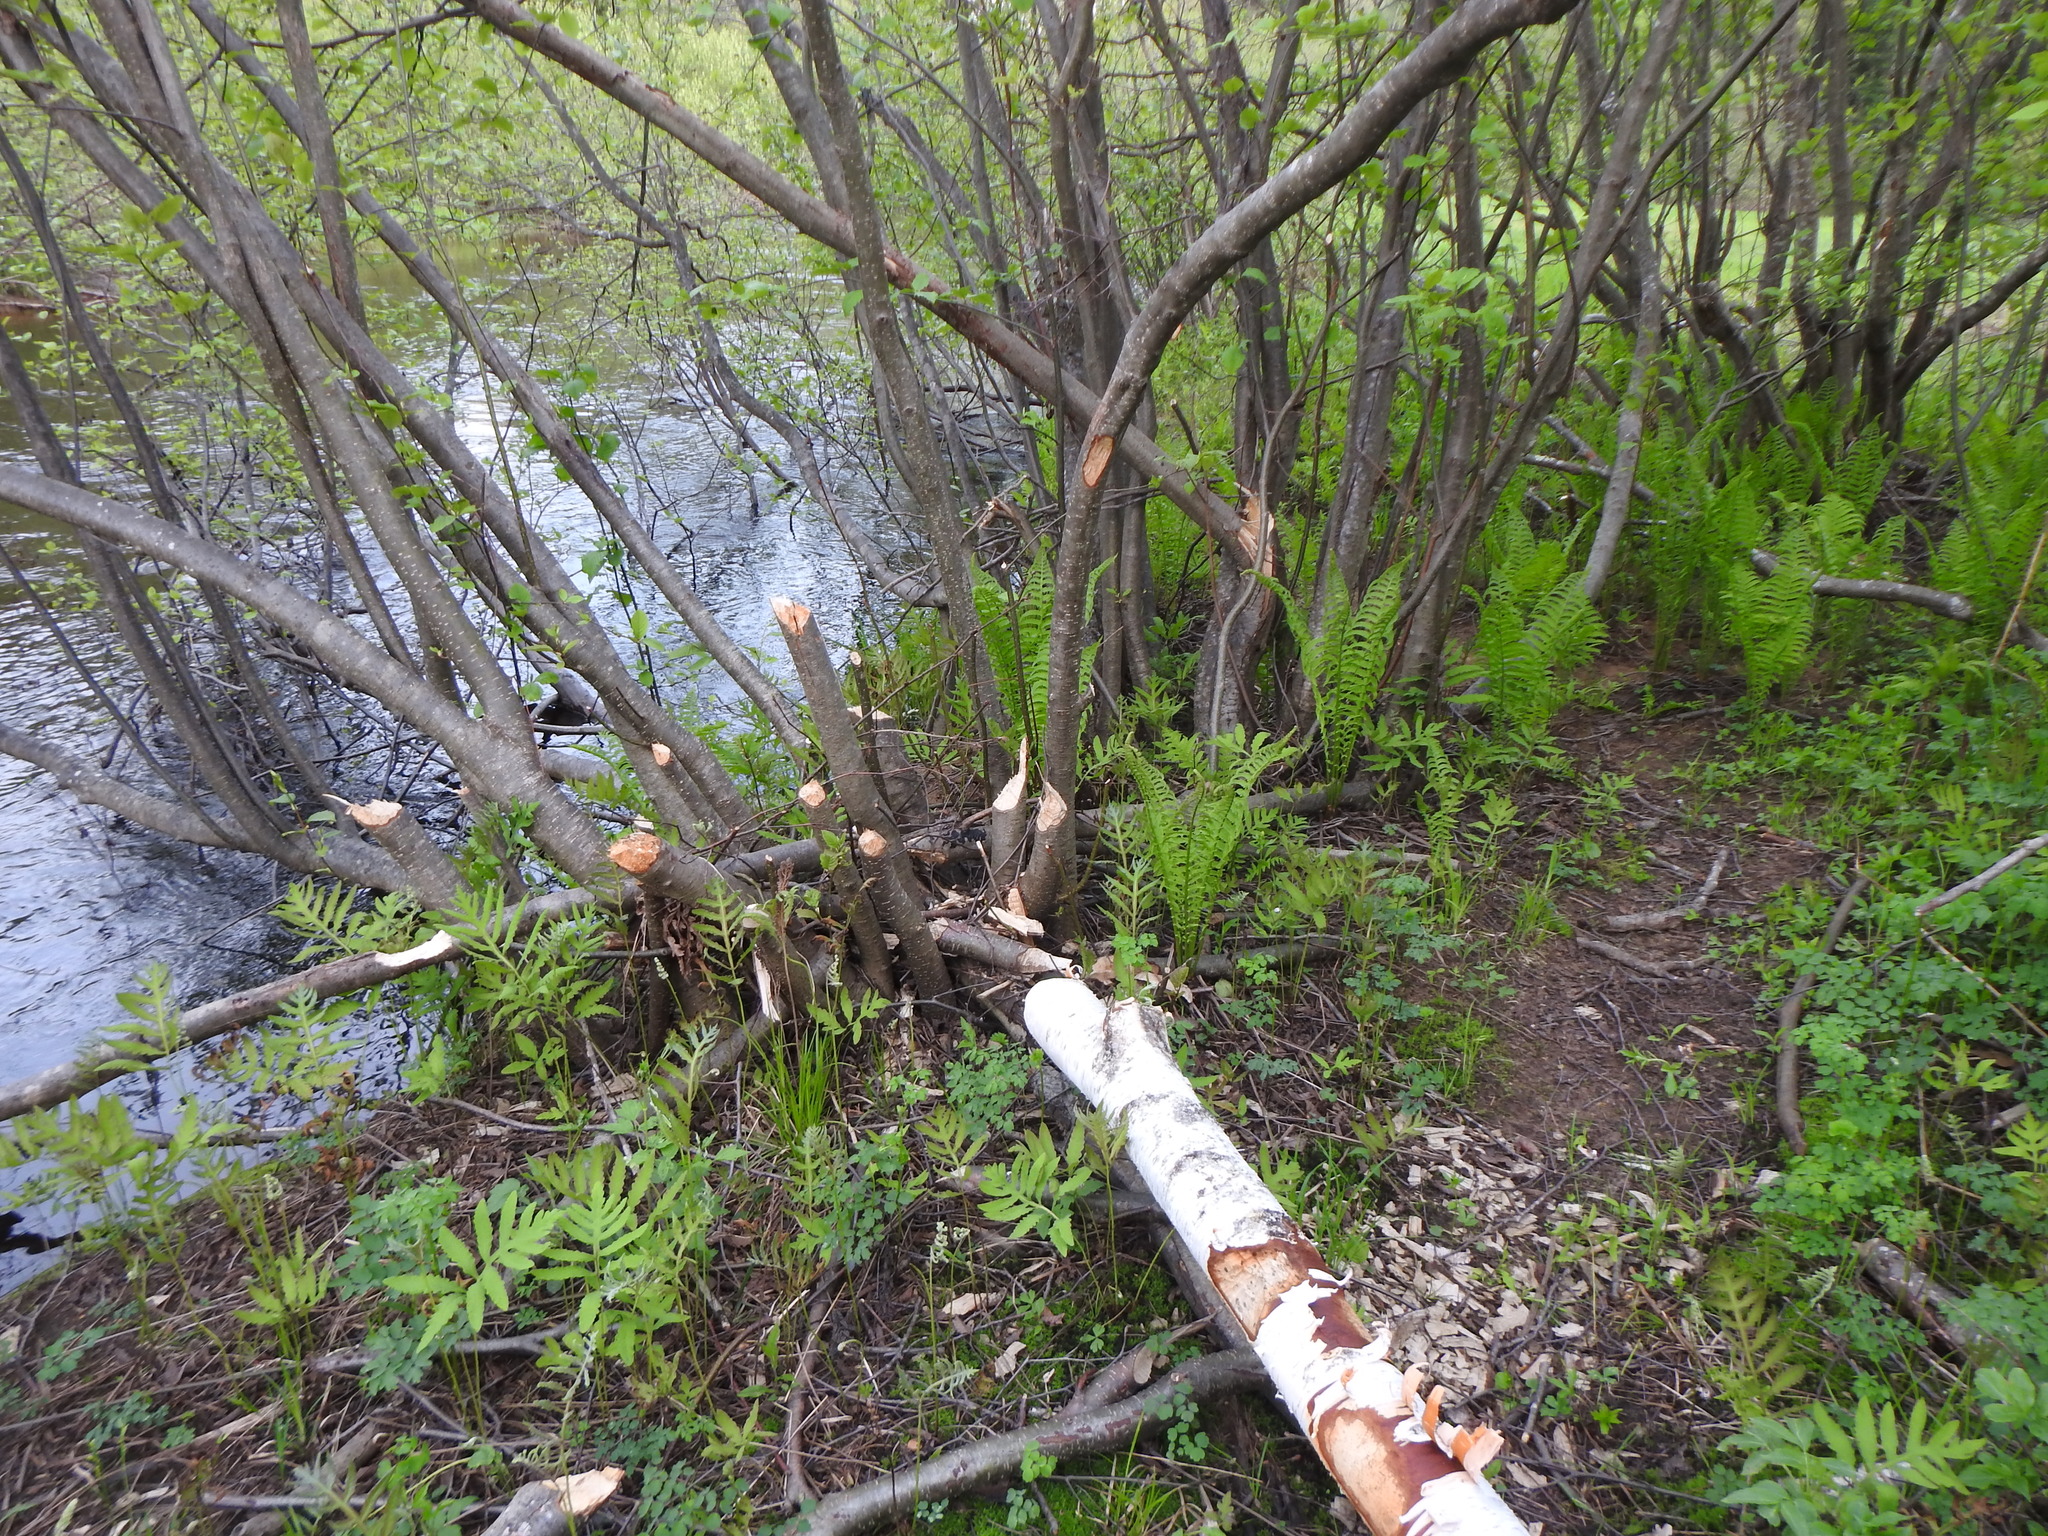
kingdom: Animalia
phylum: Chordata
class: Mammalia
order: Rodentia
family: Castoridae
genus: Castor
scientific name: Castor canadensis
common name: American beaver
